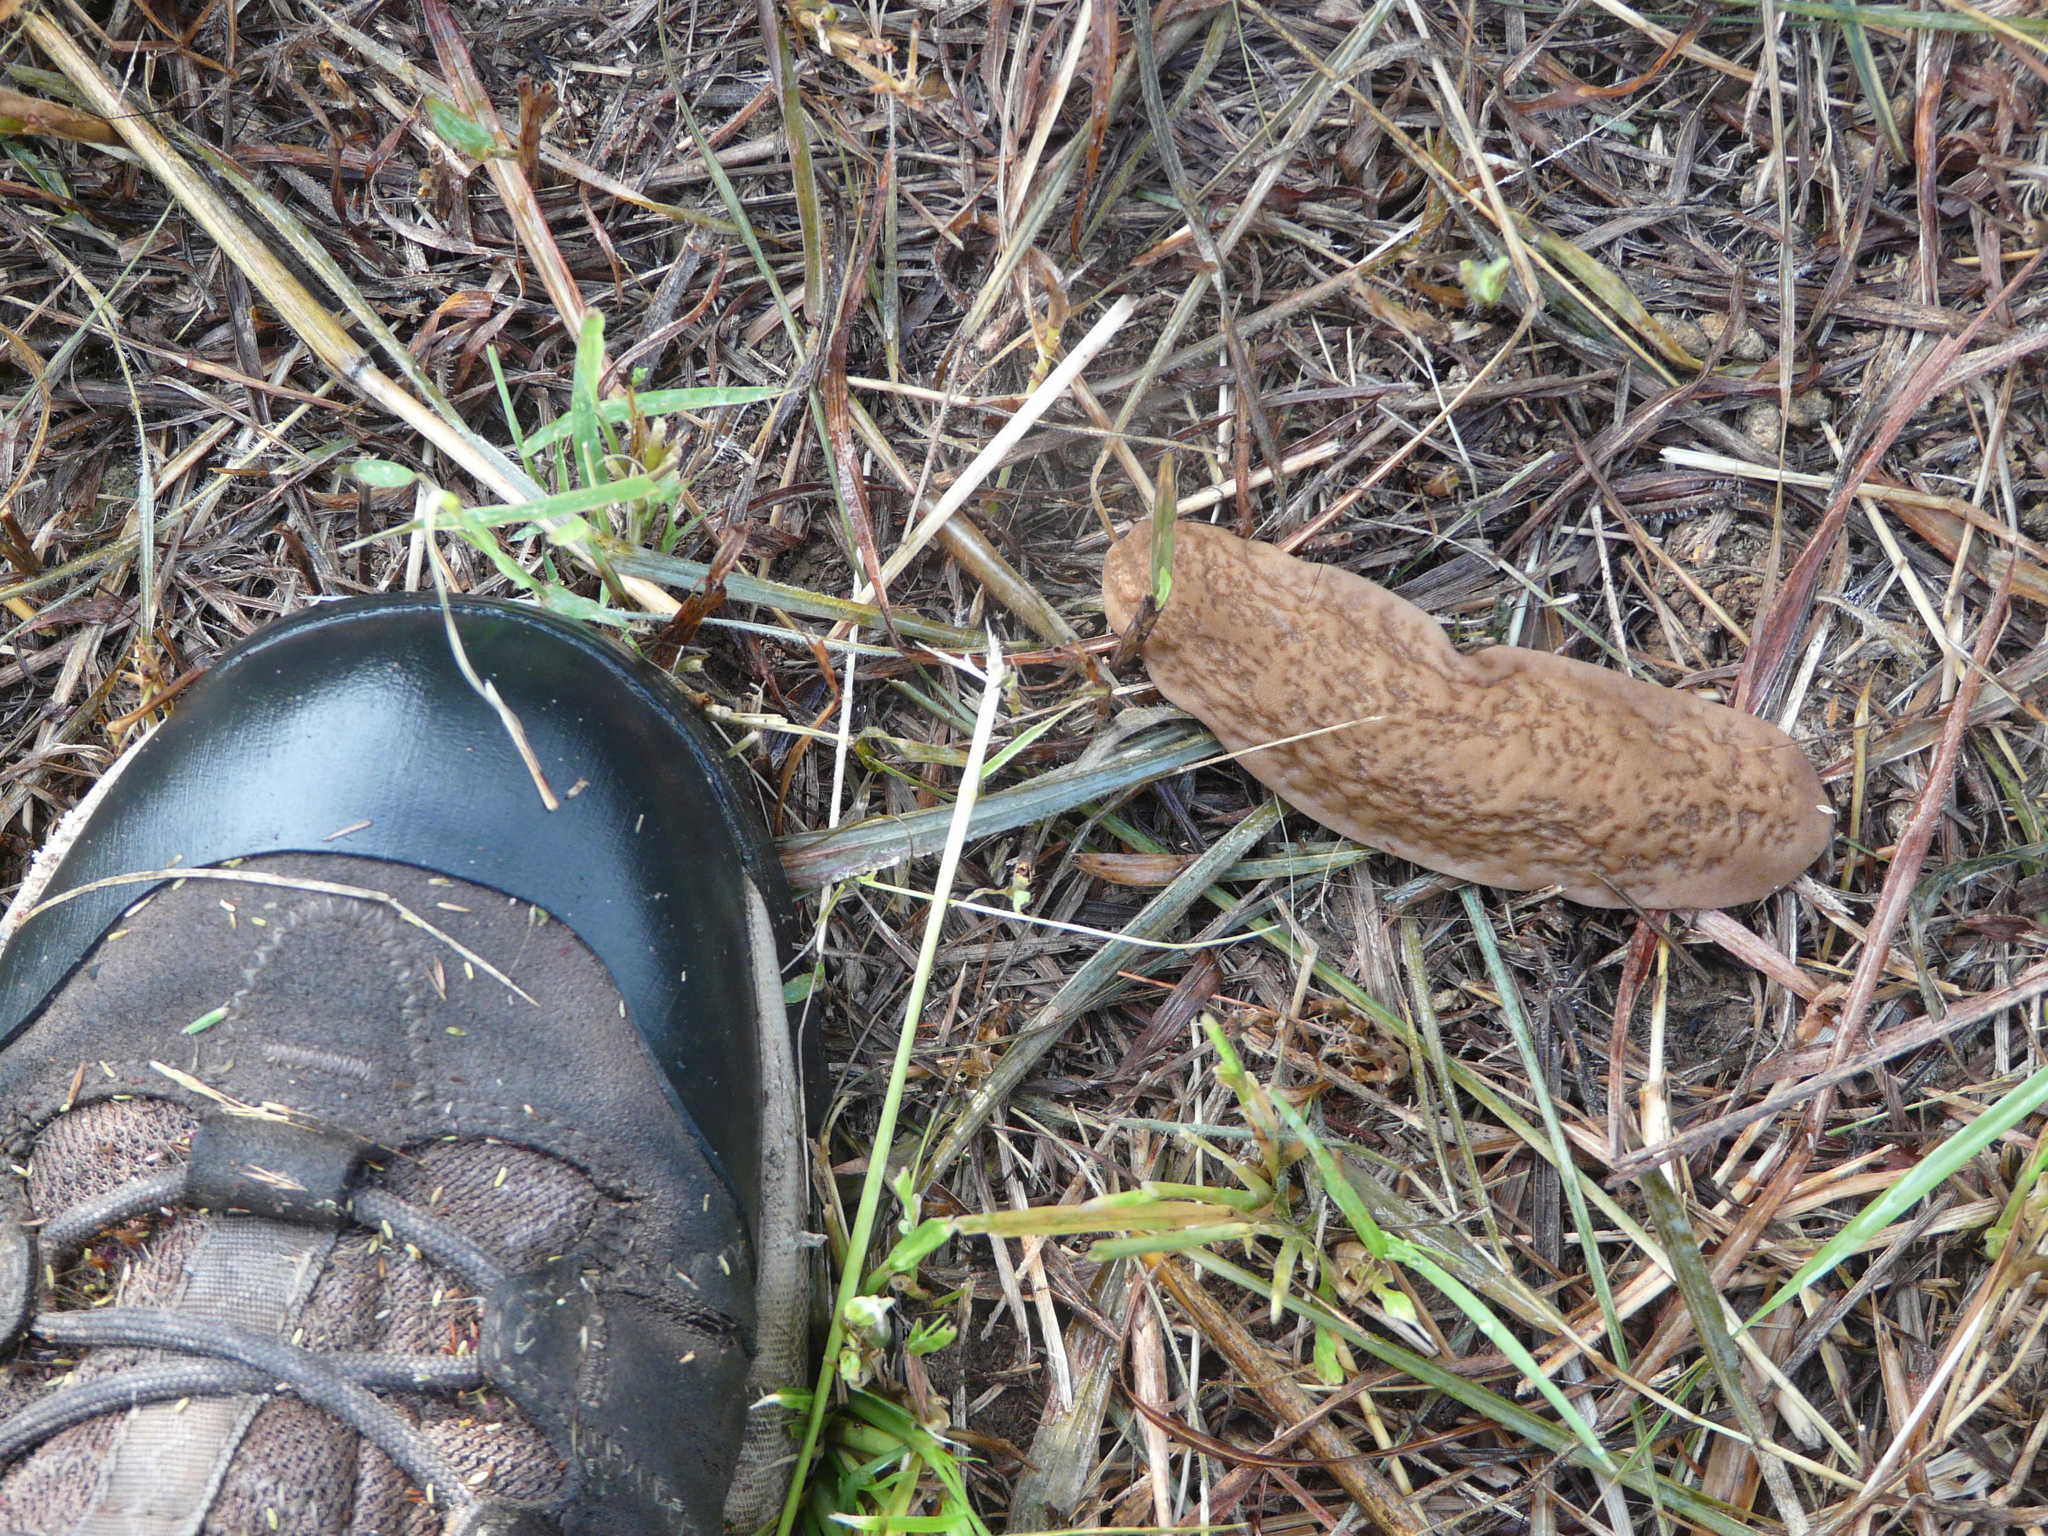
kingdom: Animalia
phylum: Mollusca
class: Gastropoda
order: Systellommatophora
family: Veronicellidae
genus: Laevicaulis
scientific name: Laevicaulis natalensis
